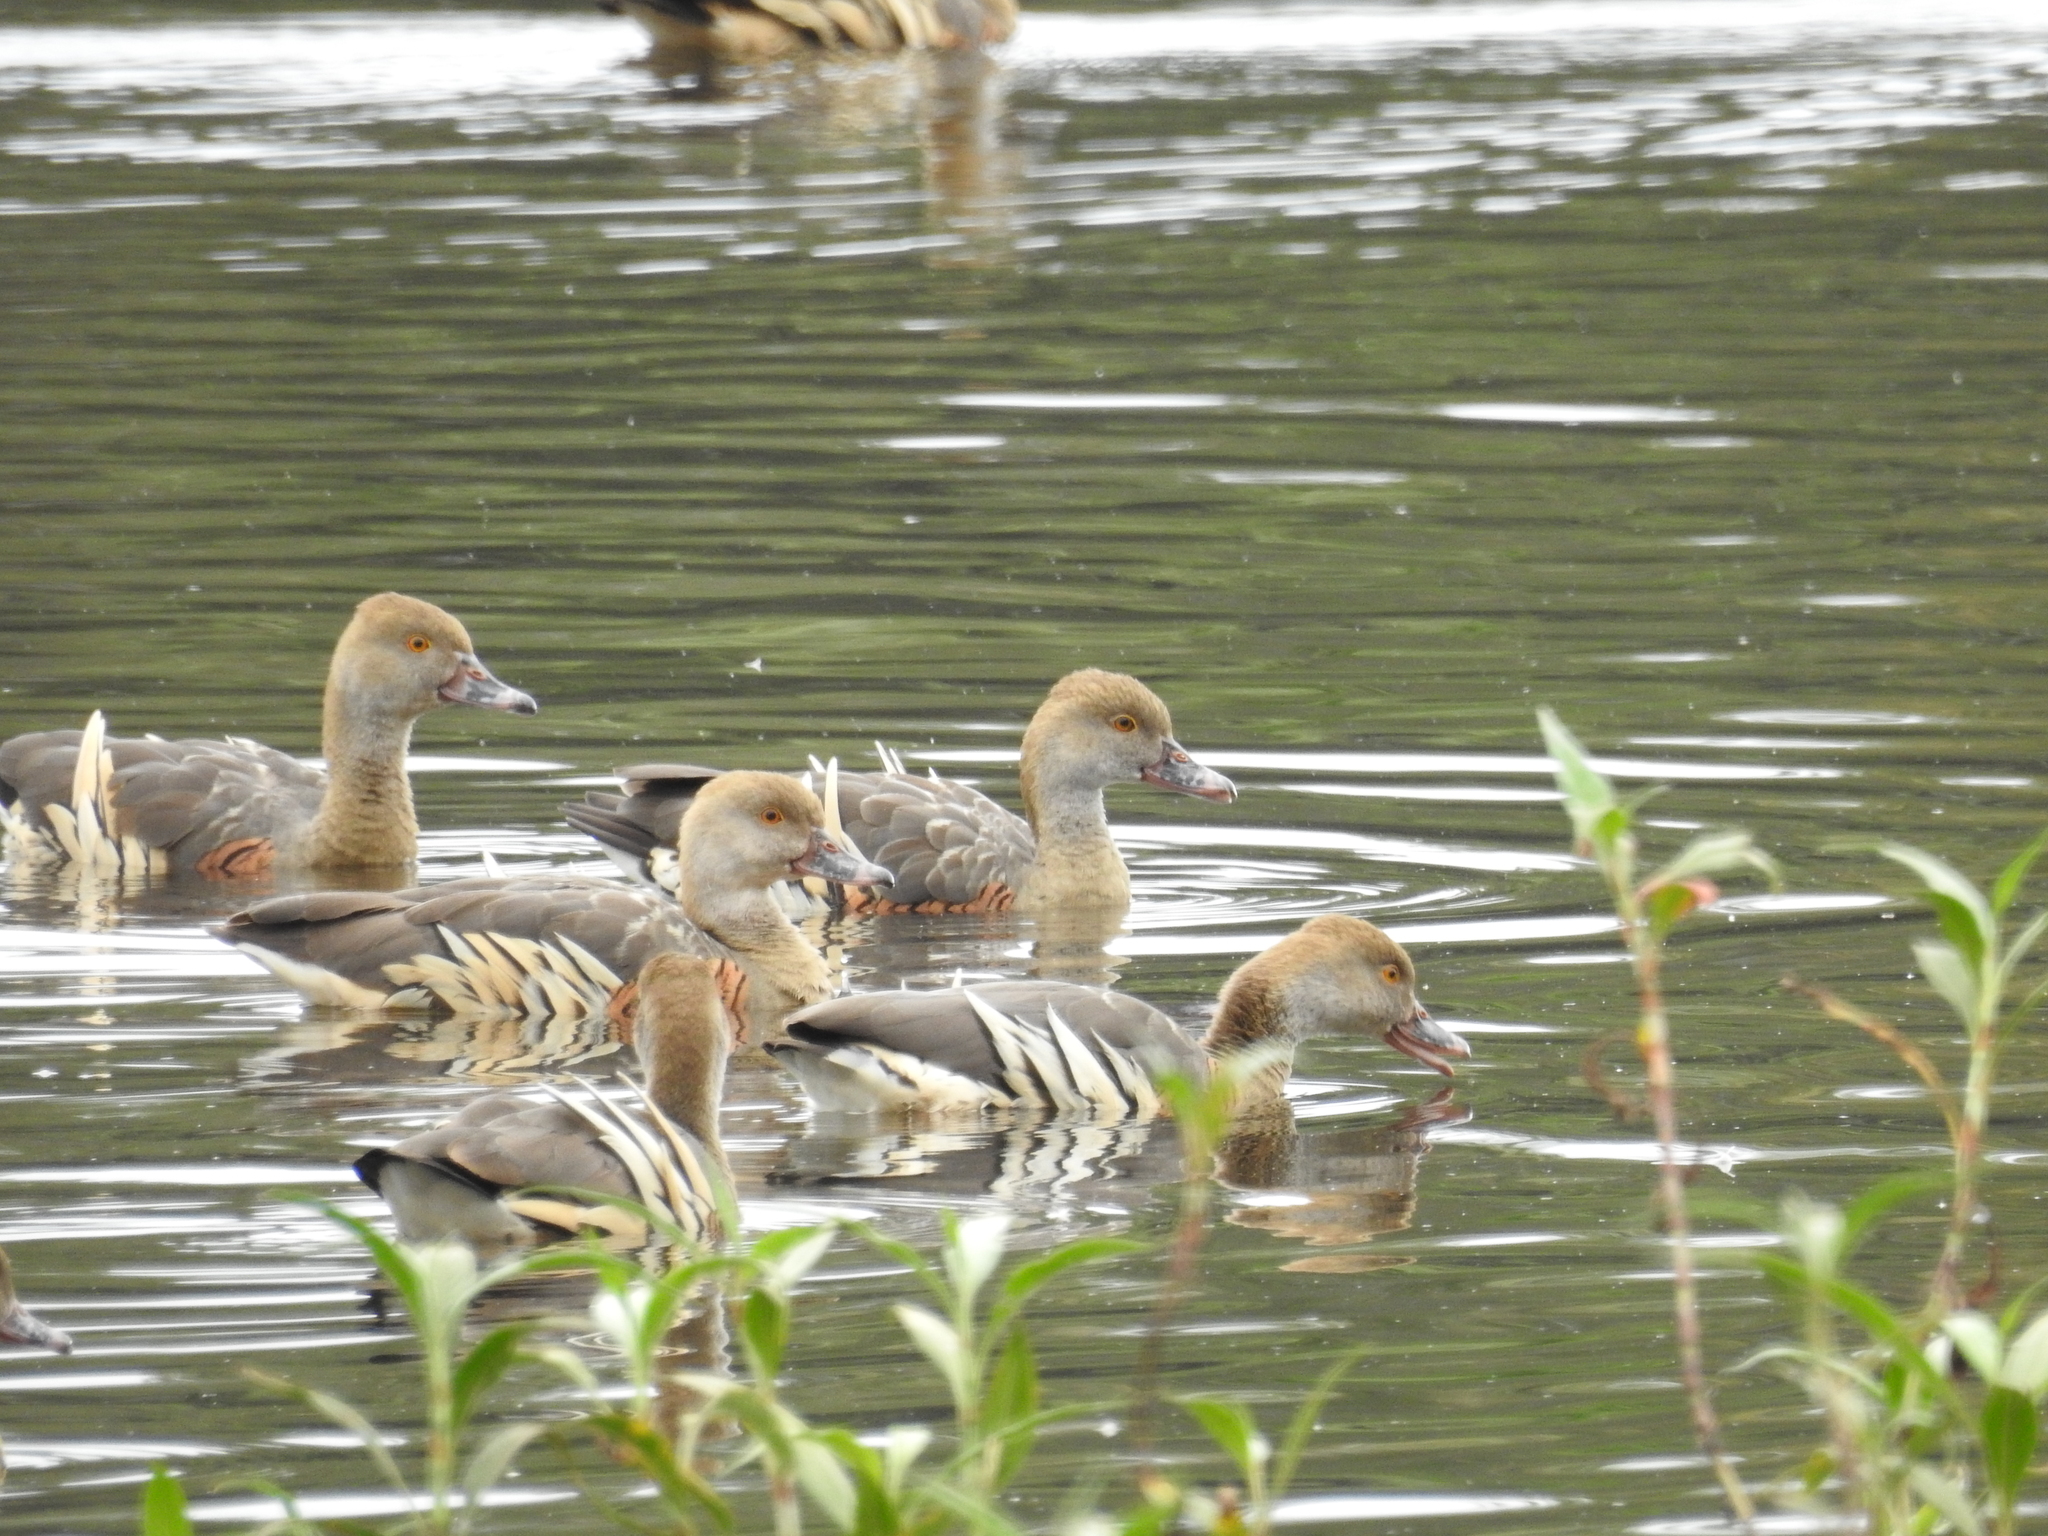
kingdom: Animalia
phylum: Chordata
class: Aves
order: Anseriformes
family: Anatidae
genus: Dendrocygna
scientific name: Dendrocygna eytoni
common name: Plumed whistling-duck
